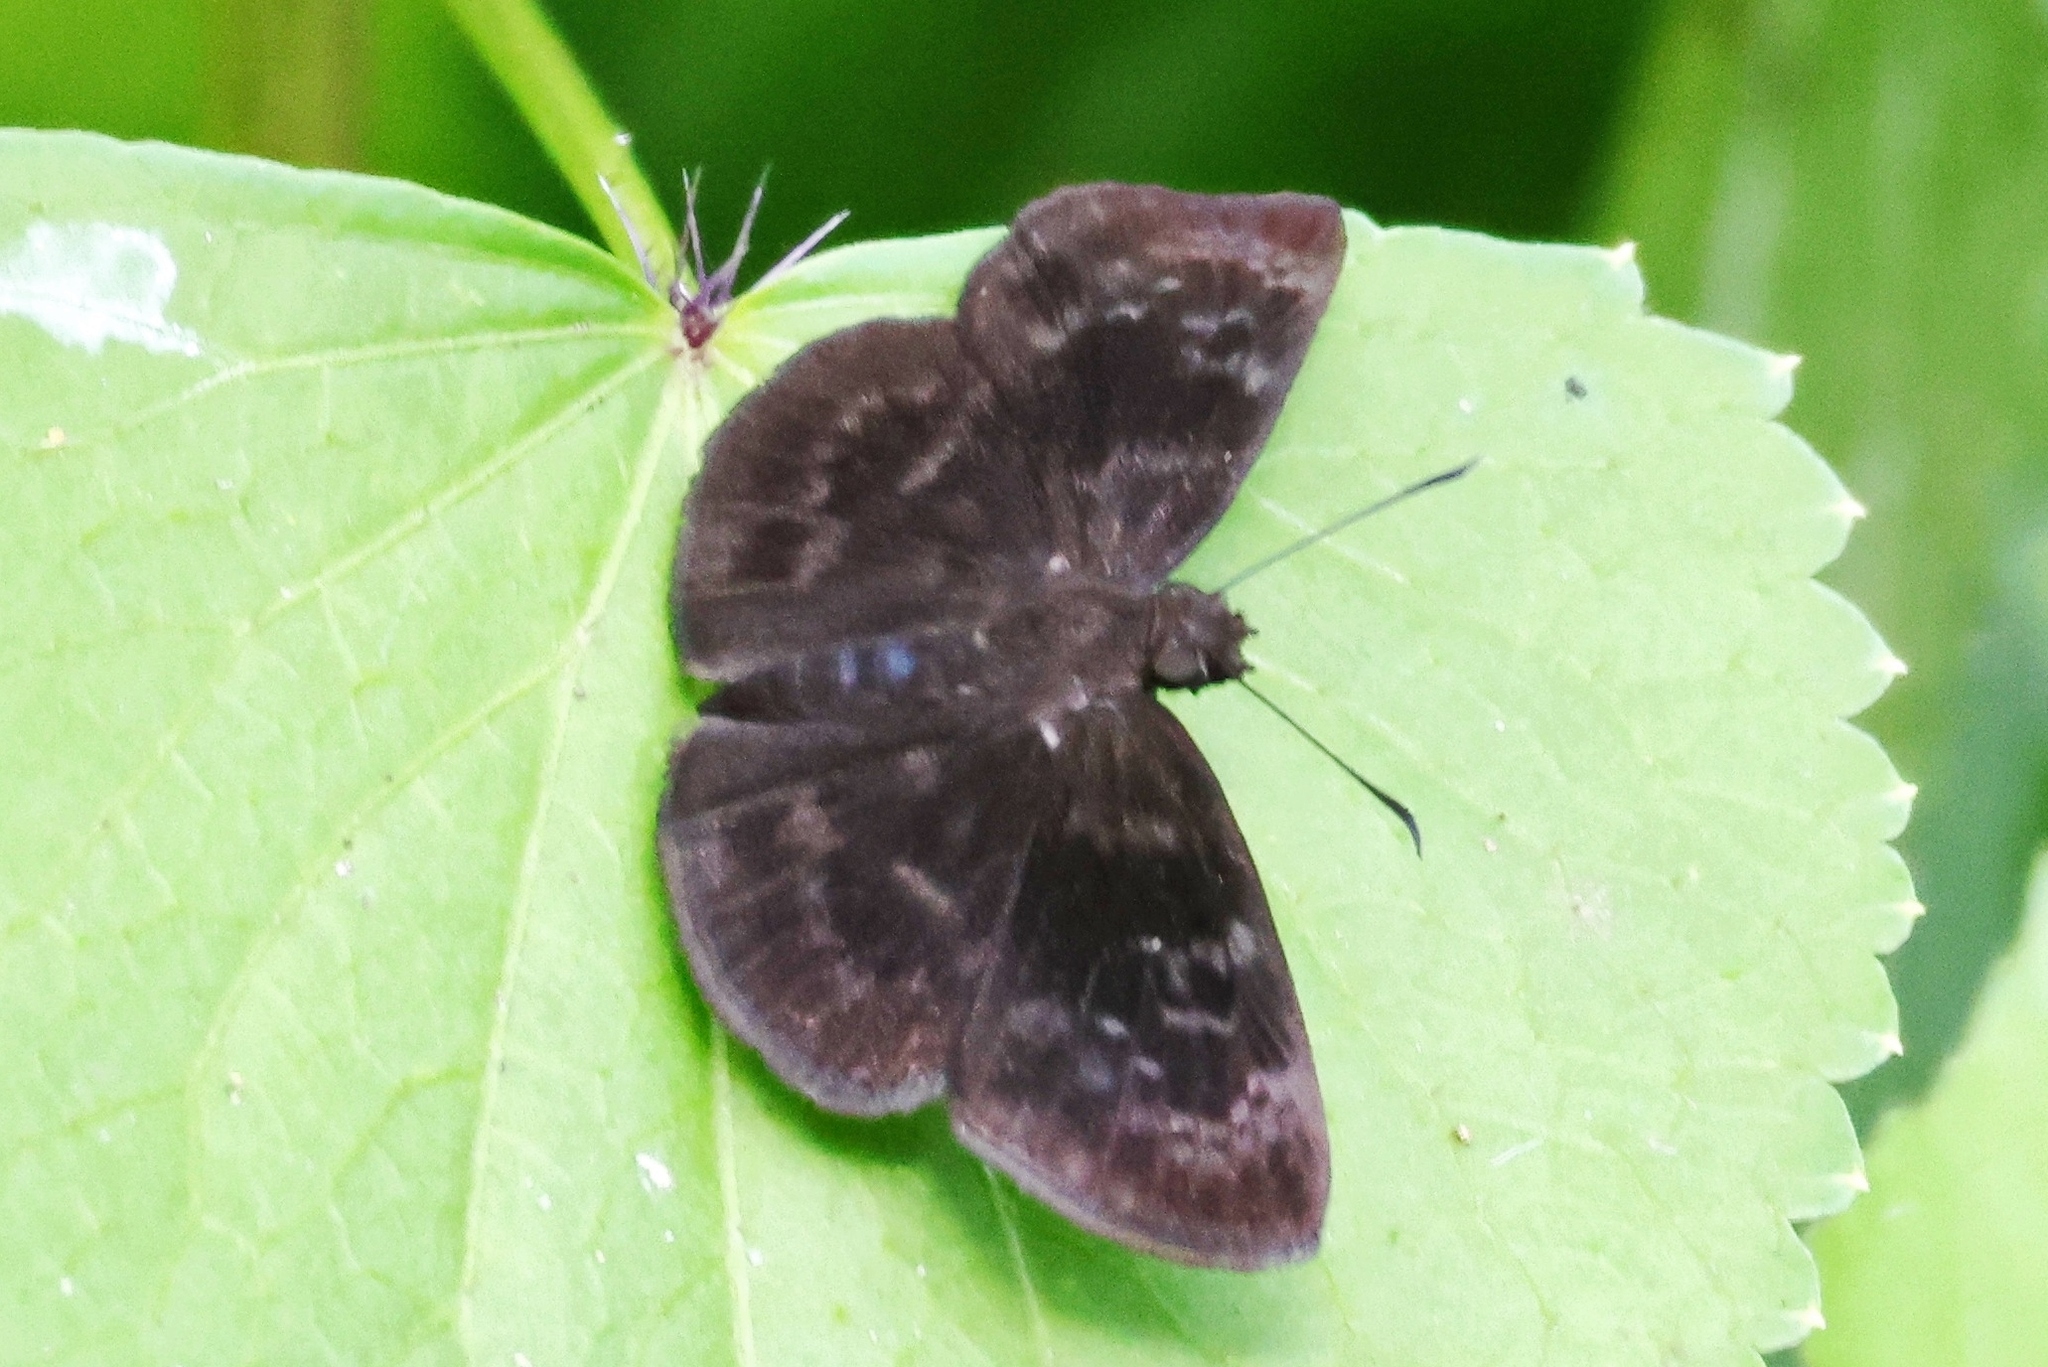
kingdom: Animalia
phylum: Arthropoda
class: Insecta
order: Lepidoptera
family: Hesperiidae
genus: Ouleus
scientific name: Ouleus fridericus
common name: Fridericus spreadwing
